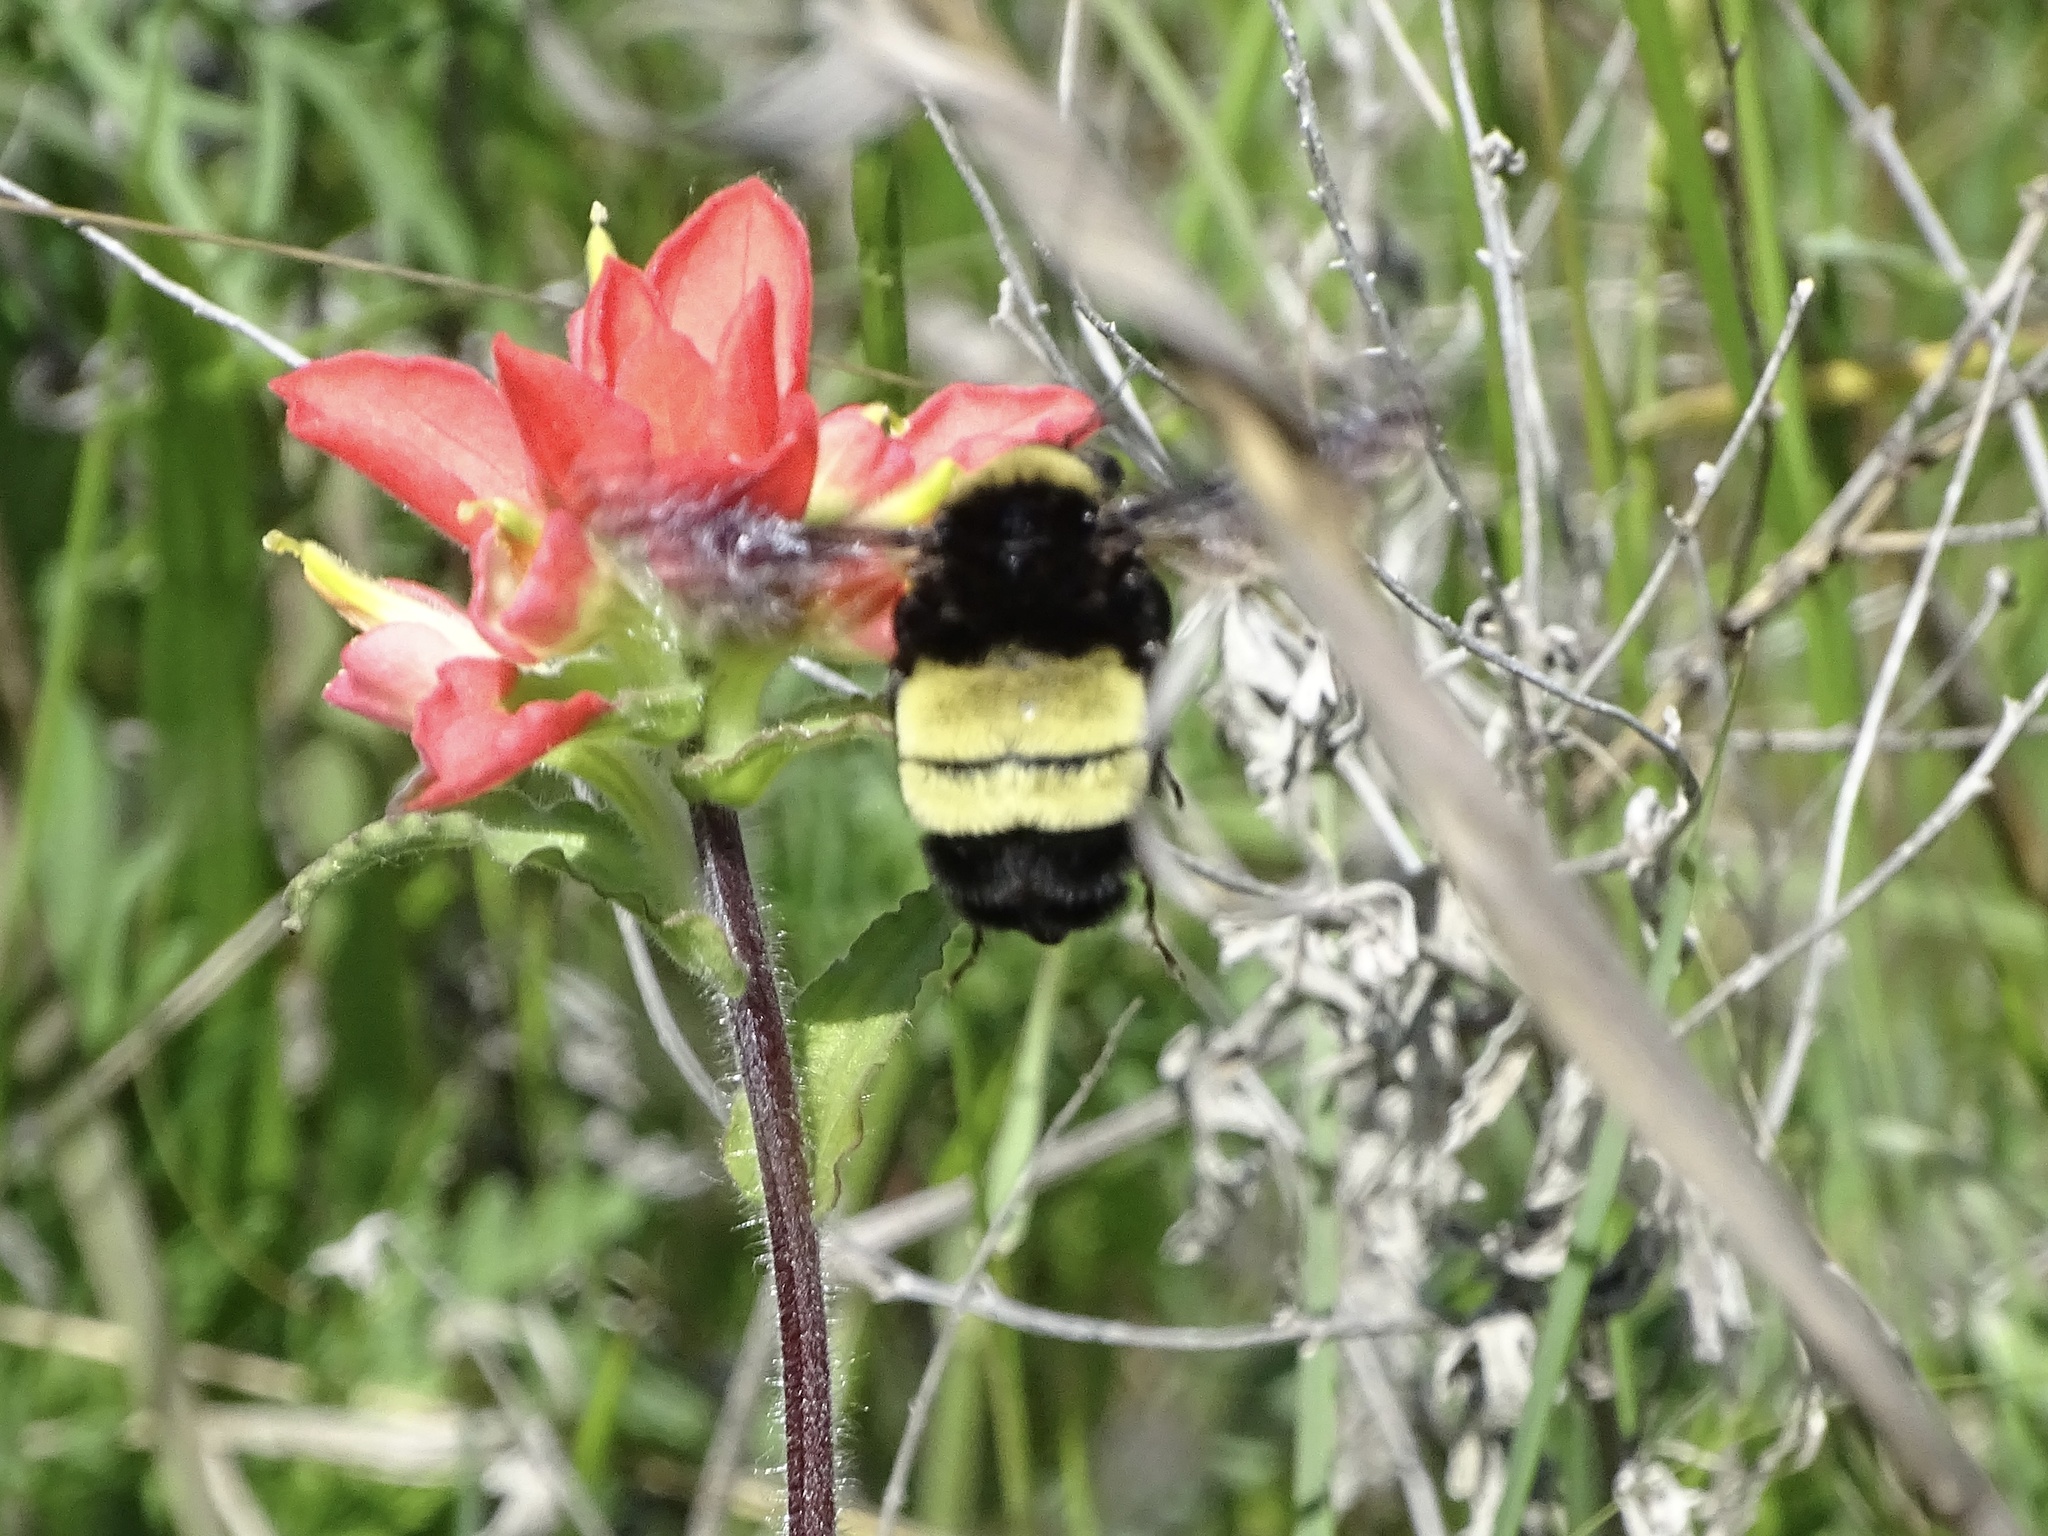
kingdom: Animalia
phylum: Arthropoda
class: Insecta
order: Hymenoptera
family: Apidae
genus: Bombus
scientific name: Bombus pensylvanicus
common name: Bumble bee
